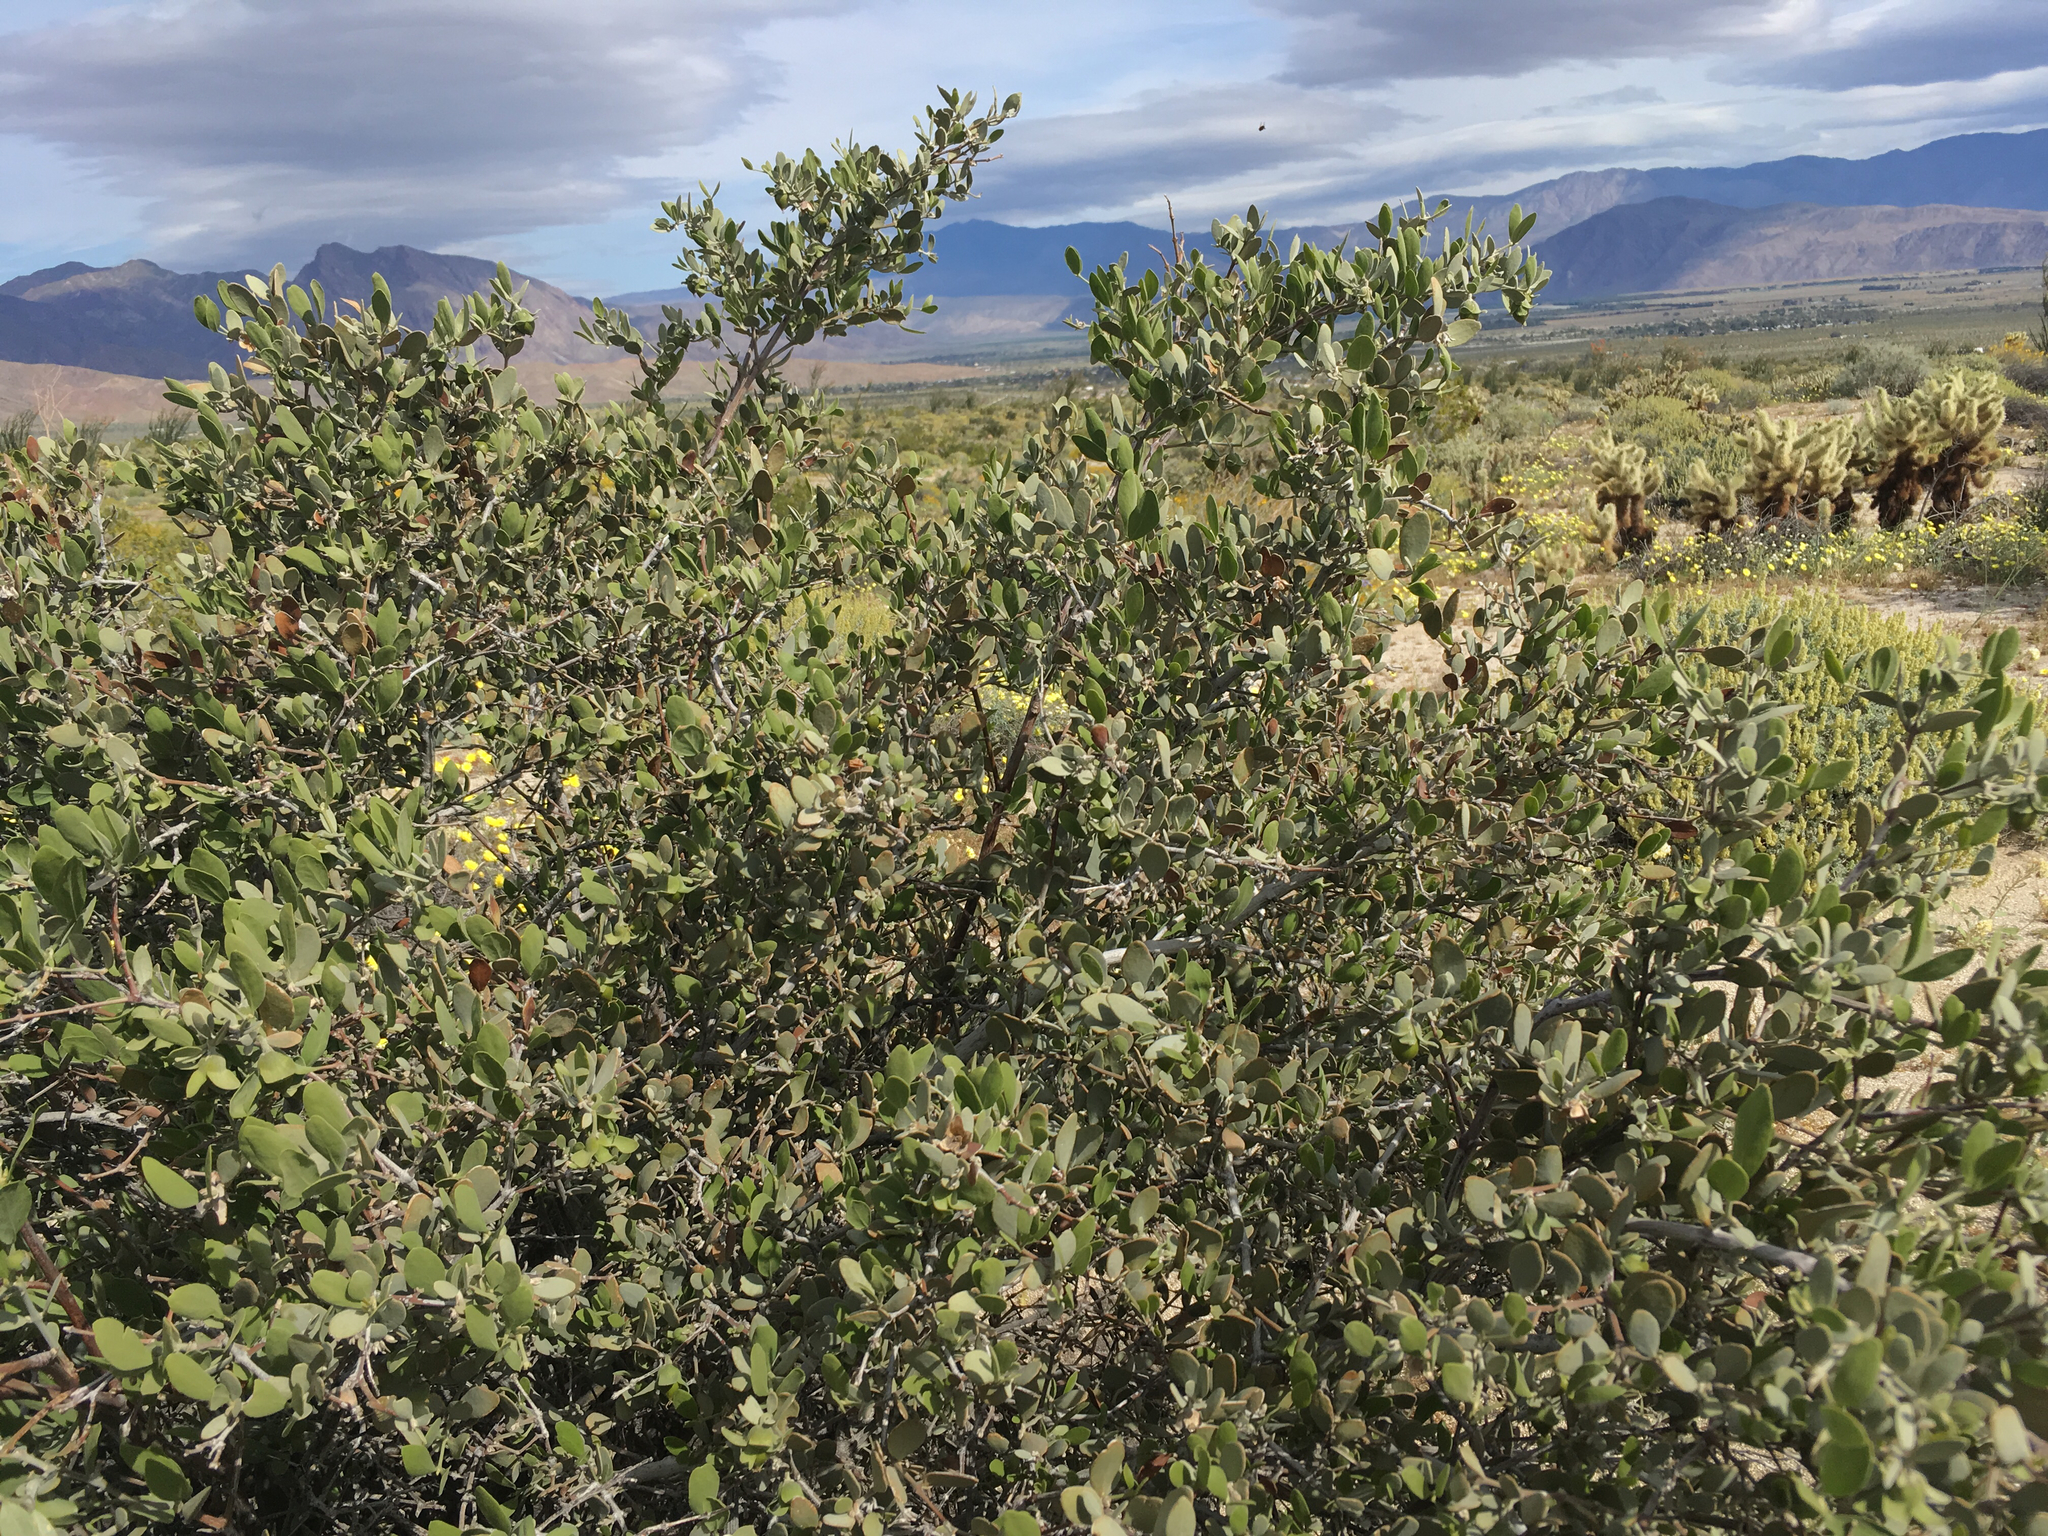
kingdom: Plantae
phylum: Tracheophyta
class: Magnoliopsida
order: Caryophyllales
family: Simmondsiaceae
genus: Simmondsia
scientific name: Simmondsia chinensis
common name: Jojoba
